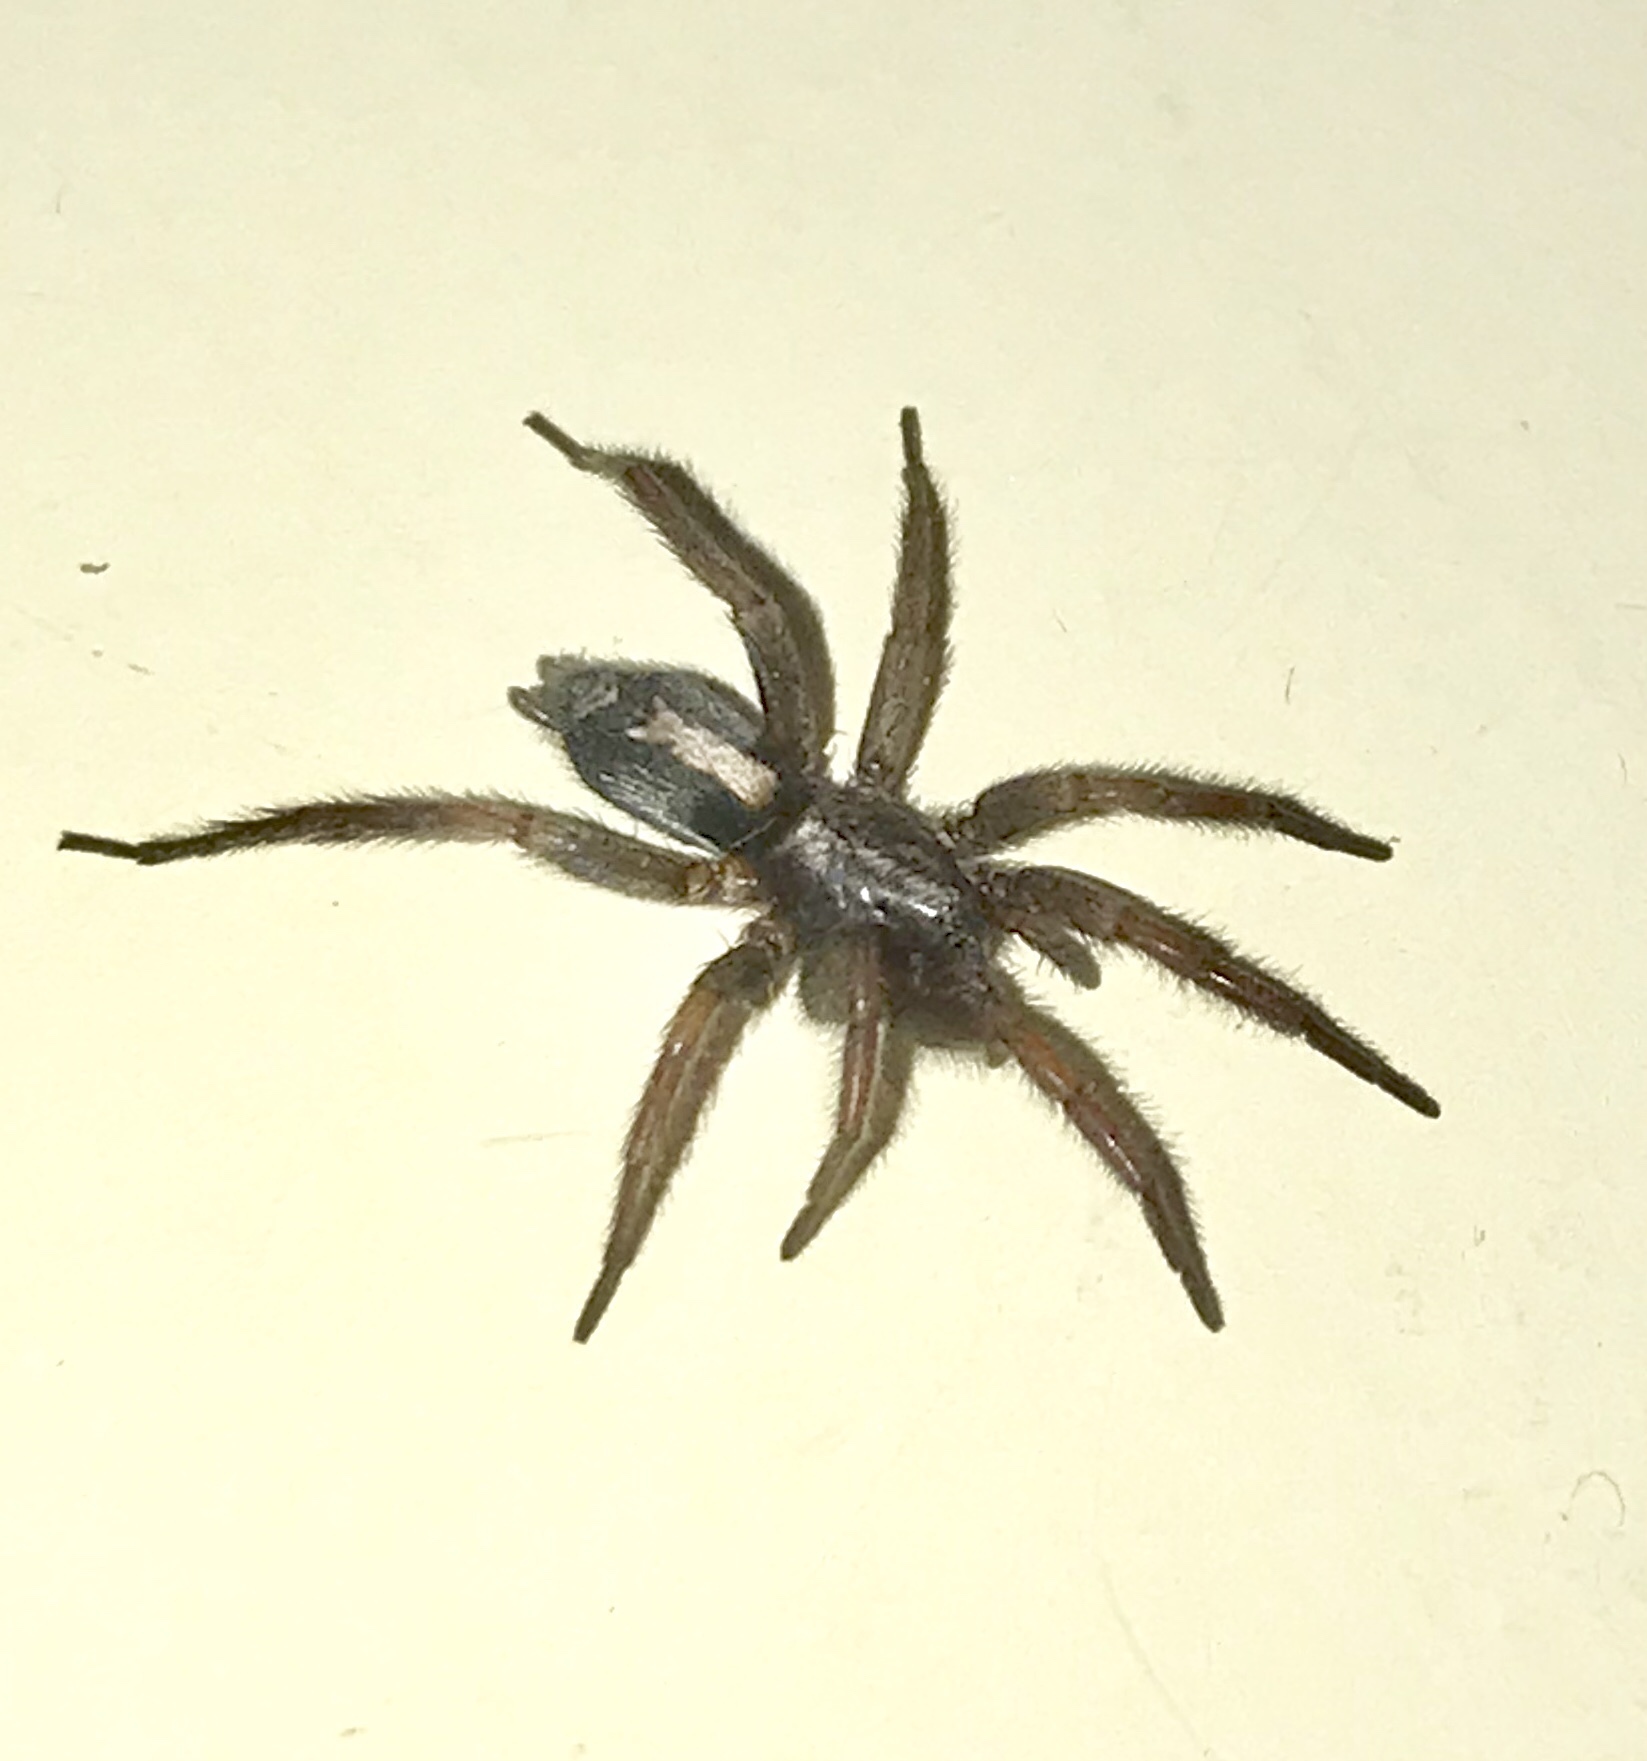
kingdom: Animalia
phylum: Arthropoda
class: Arachnida
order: Araneae
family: Gnaphosidae
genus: Herpyllus
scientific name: Herpyllus ecclesiasticus
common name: Eastern parson spider
